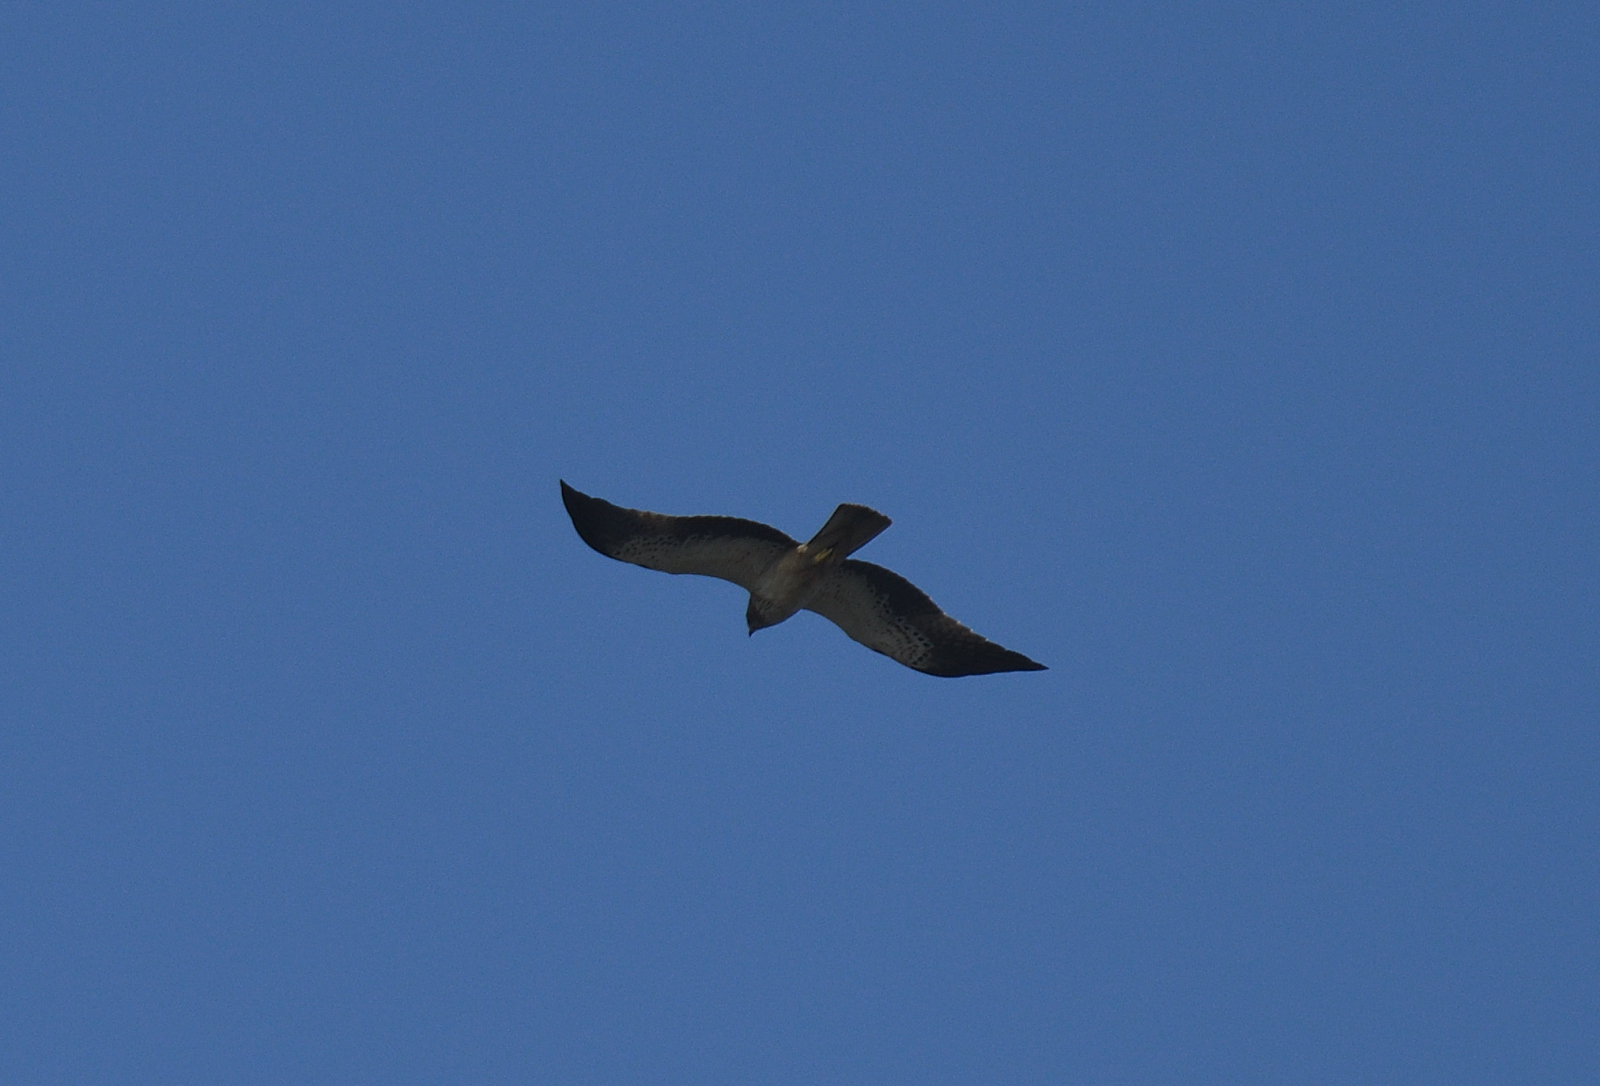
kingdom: Animalia
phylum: Chordata
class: Aves
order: Accipitriformes
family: Accipitridae
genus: Hieraaetus
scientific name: Hieraaetus pennatus
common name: Booted eagle
